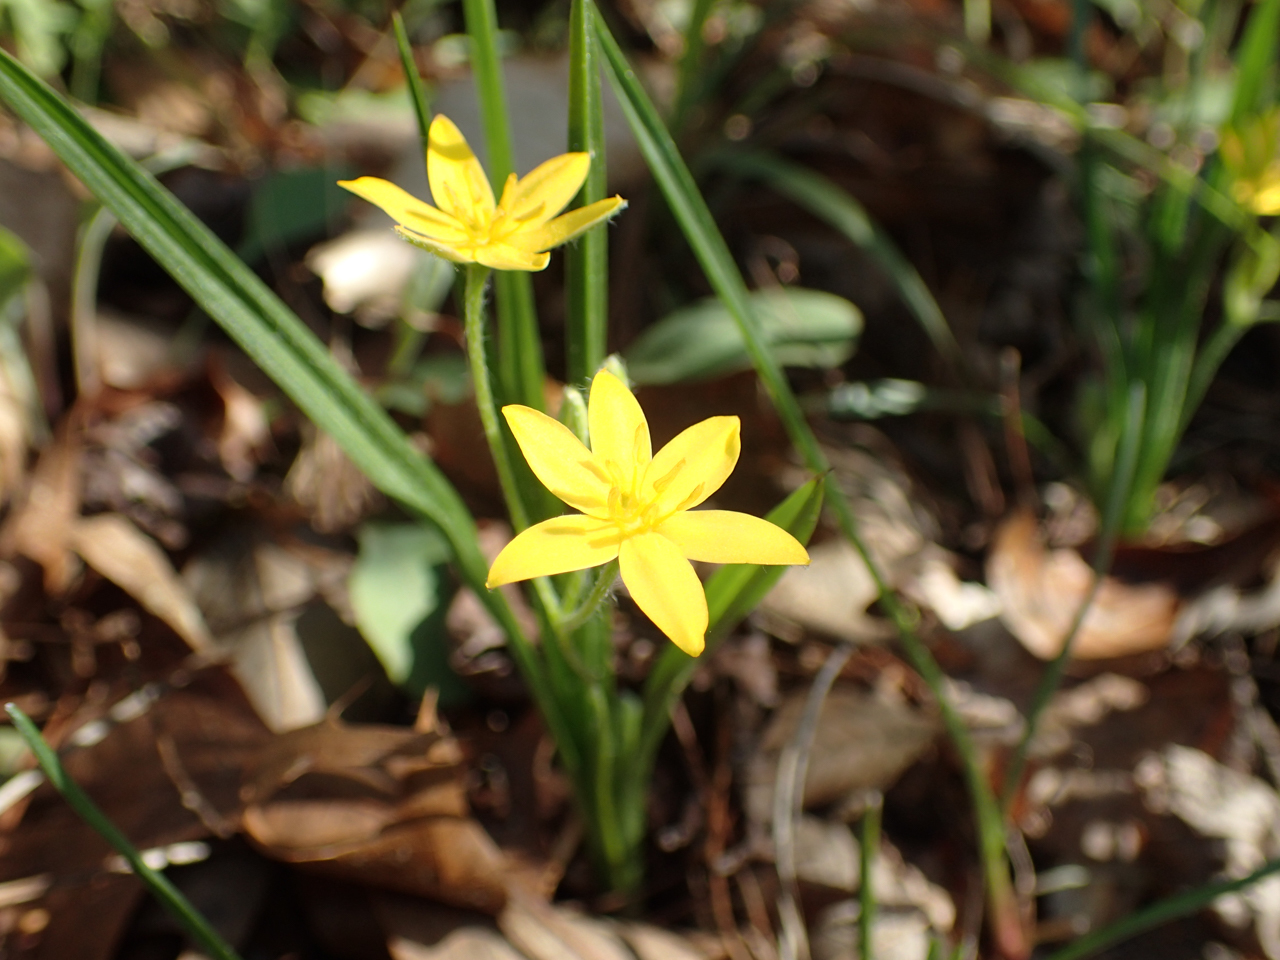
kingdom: Plantae
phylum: Tracheophyta
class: Liliopsida
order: Asparagales
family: Hypoxidaceae
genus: Hypoxis
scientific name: Hypoxis hirsuta
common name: Common goldstar
